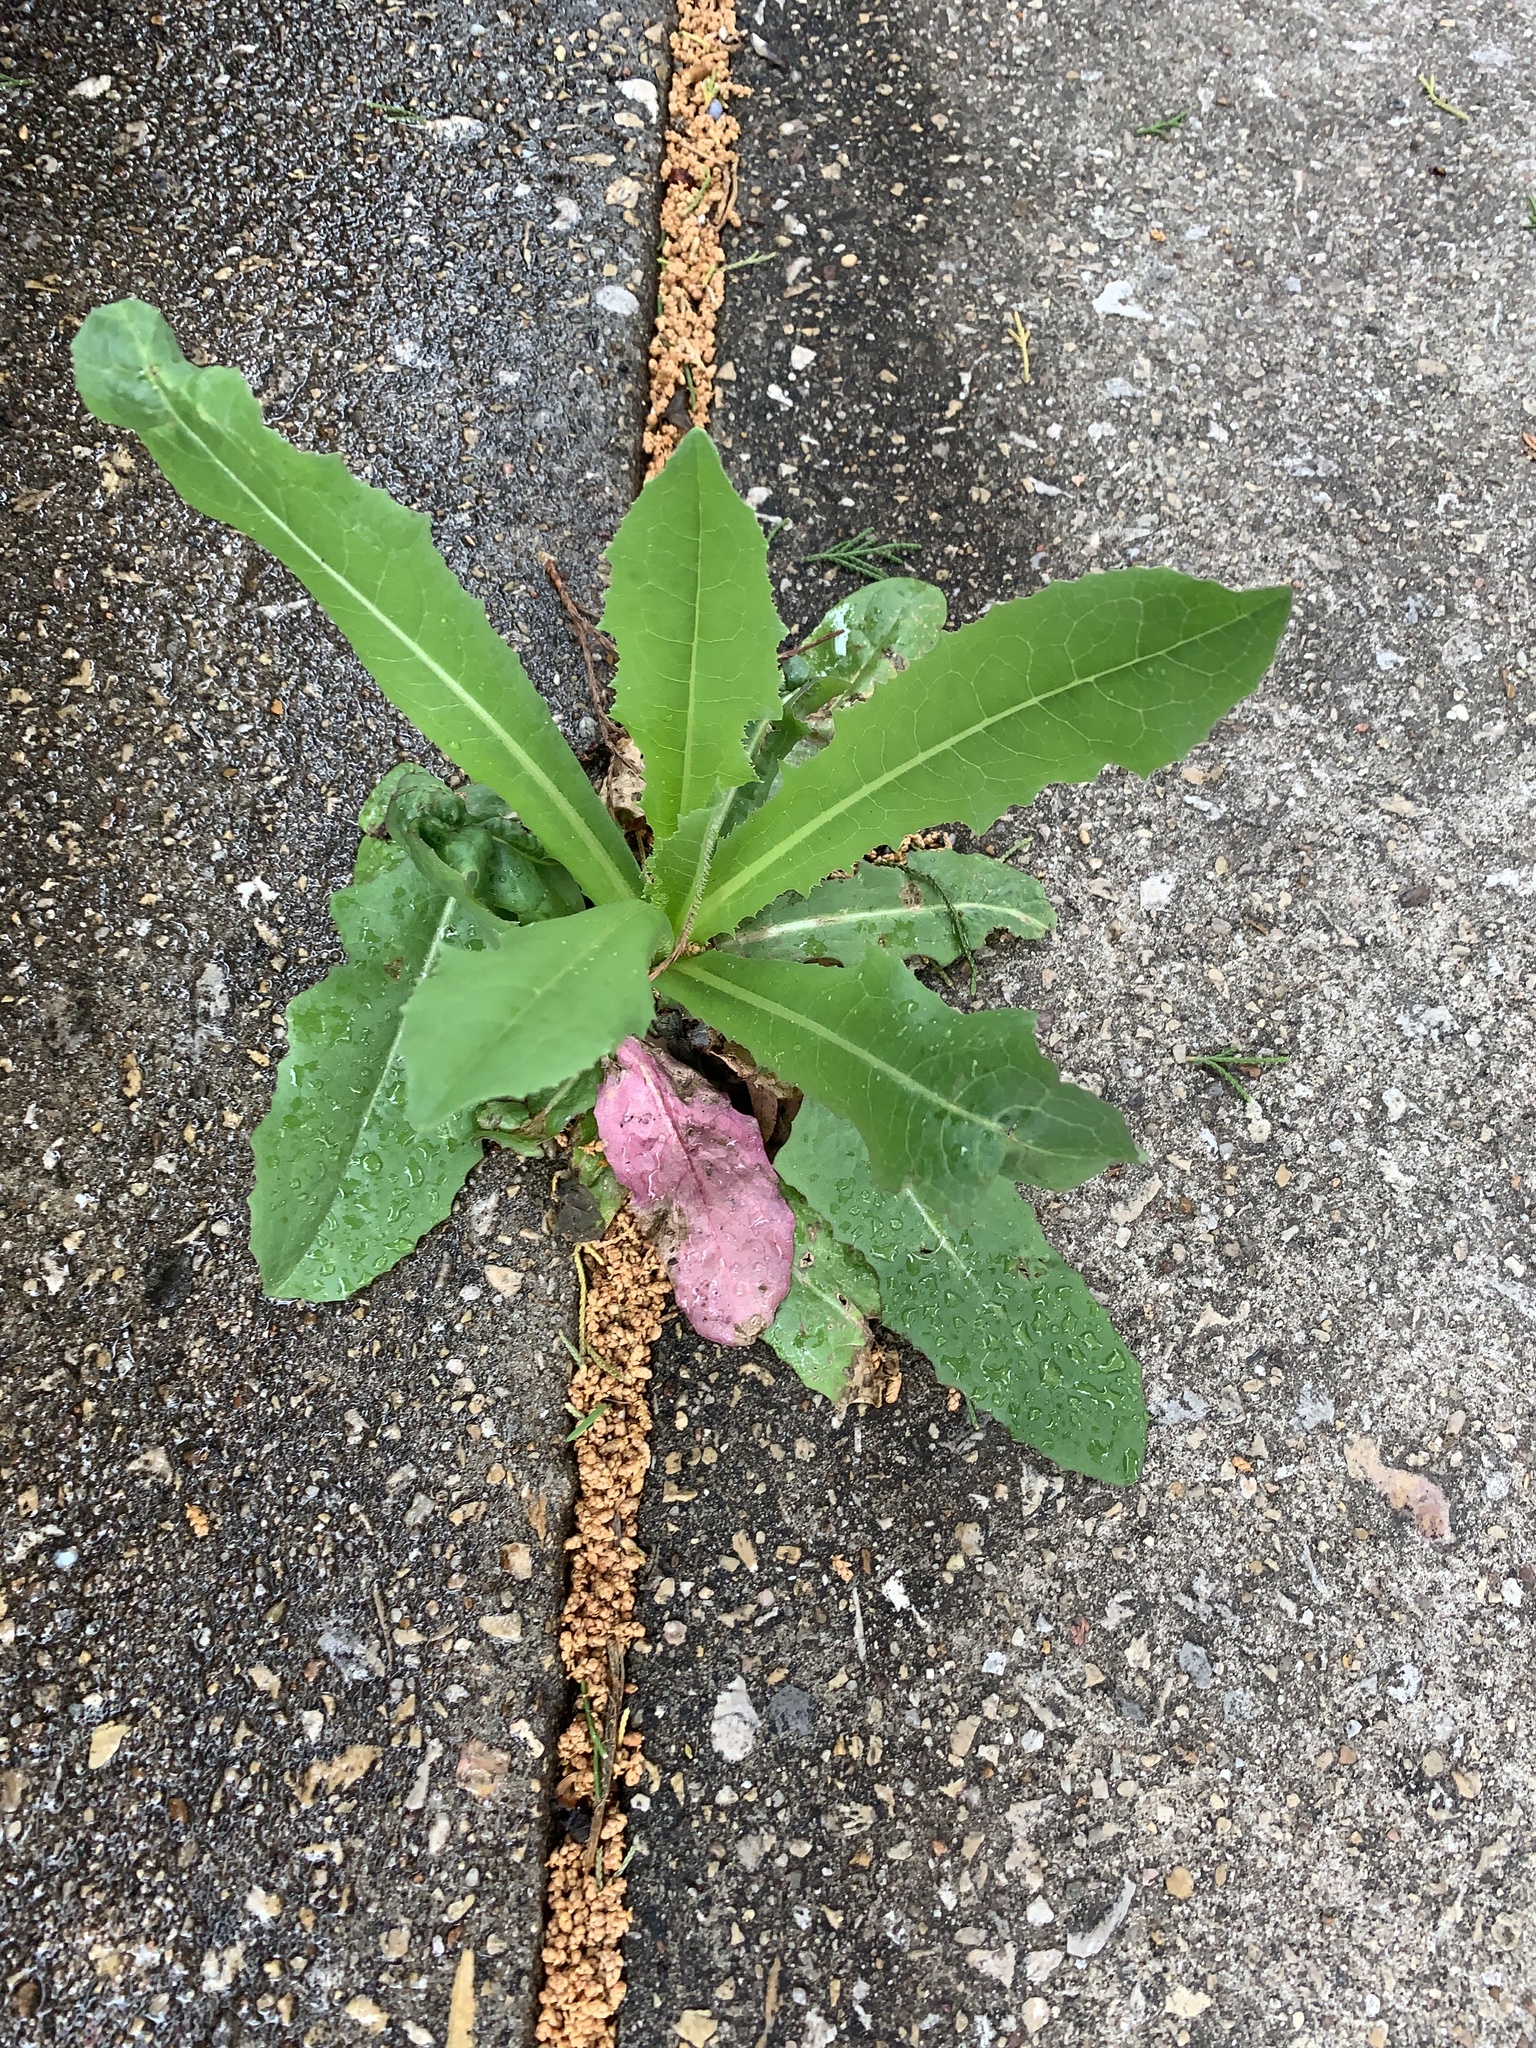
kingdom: Plantae
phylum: Tracheophyta
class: Magnoliopsida
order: Asterales
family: Asteraceae
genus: Lactuca
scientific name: Lactuca serriola
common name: Prickly lettuce
